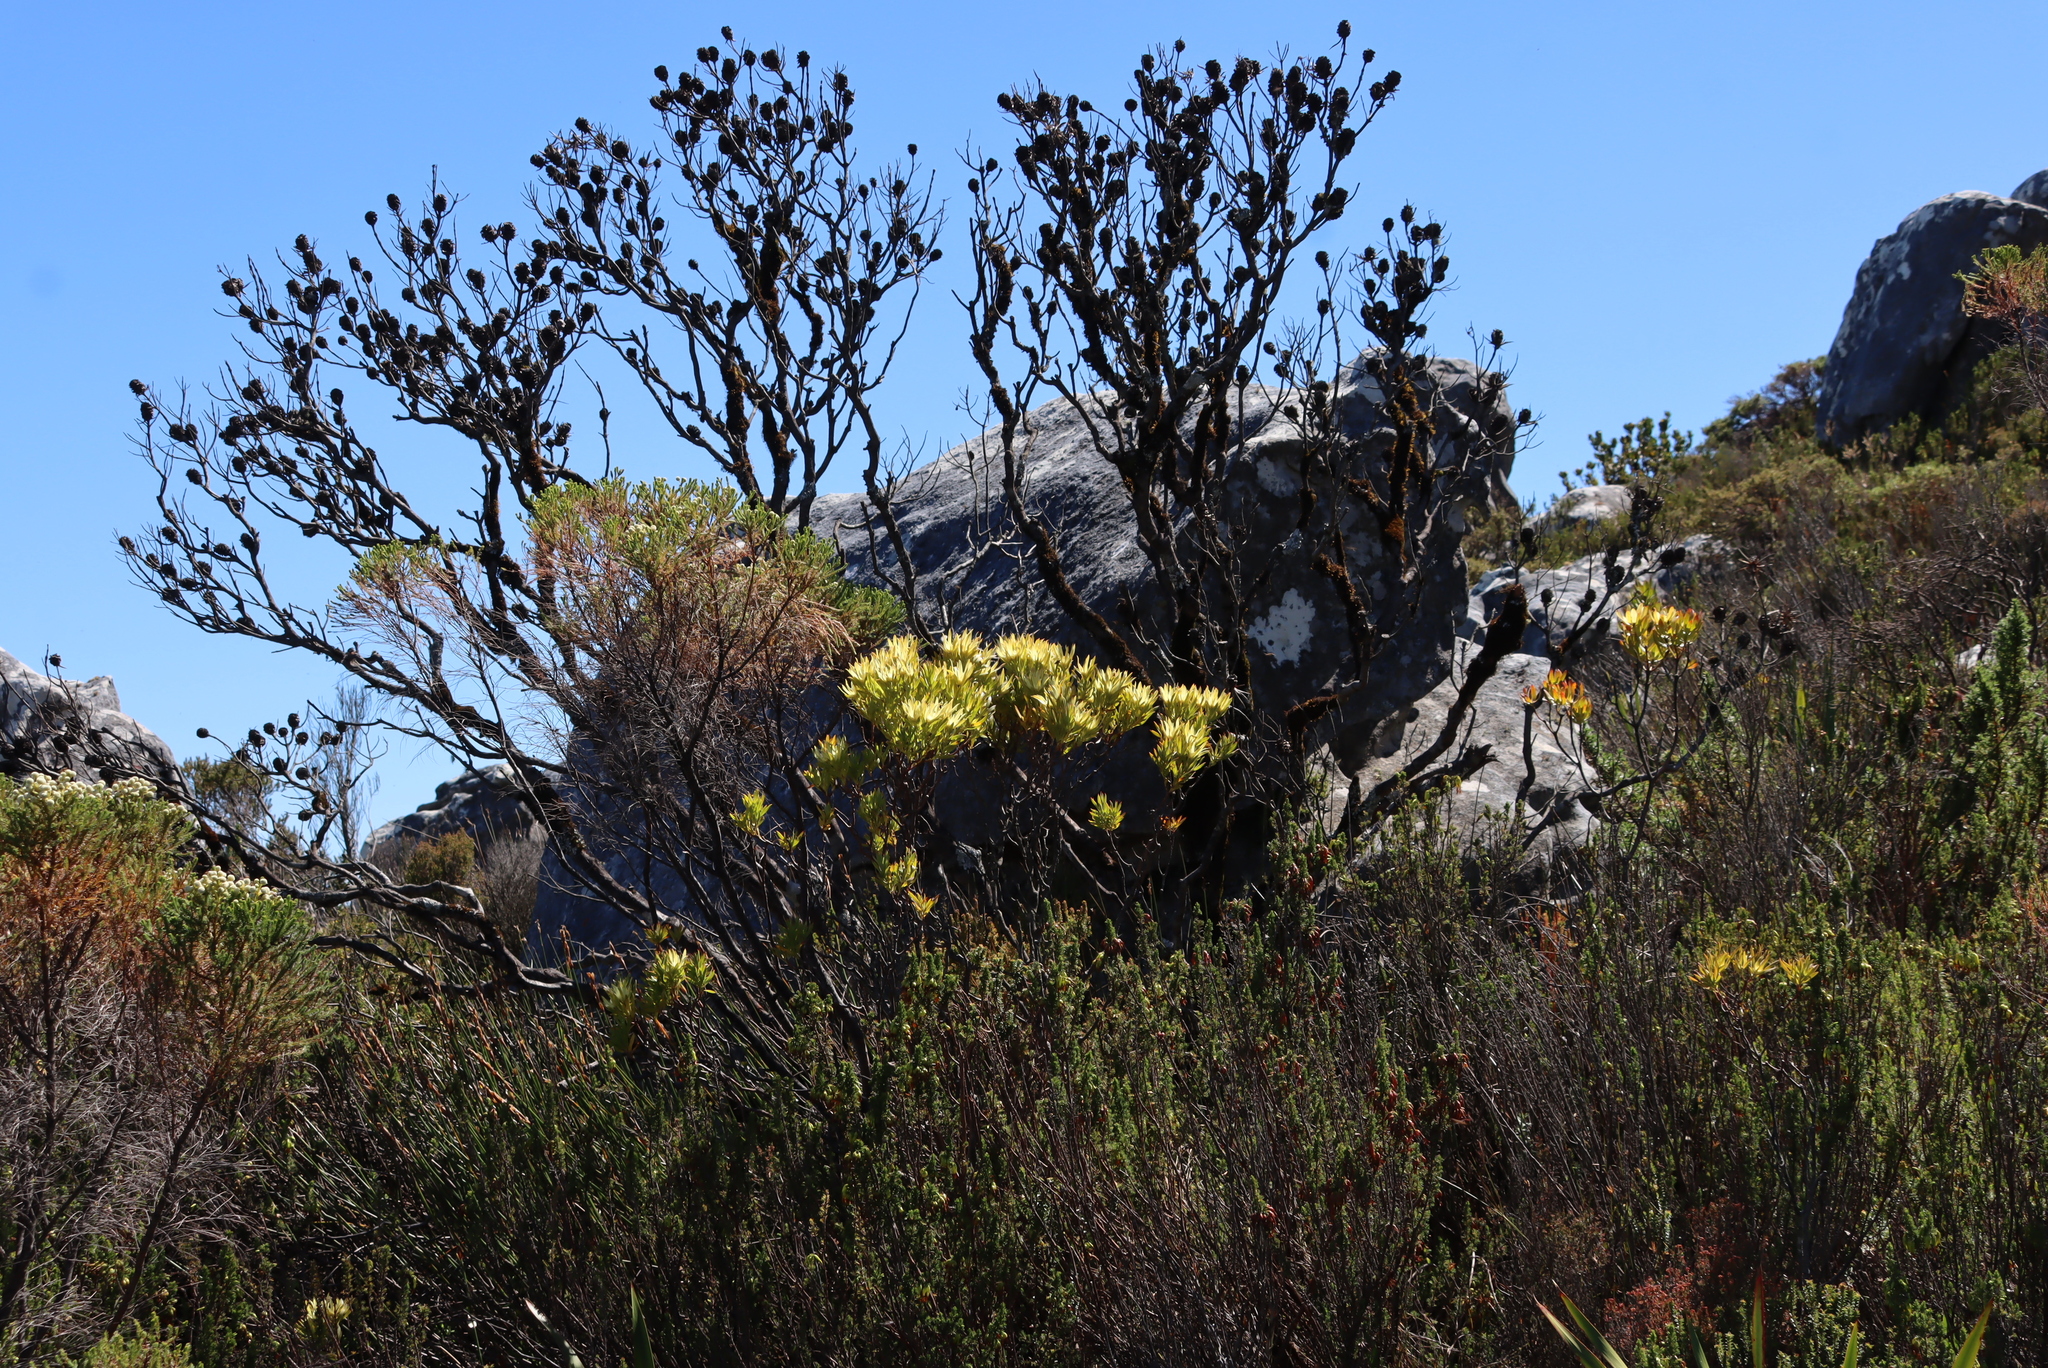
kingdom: Plantae
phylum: Tracheophyta
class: Magnoliopsida
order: Proteales
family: Proteaceae
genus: Leucadendron
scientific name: Leucadendron strobilinum
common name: Mountain rose
